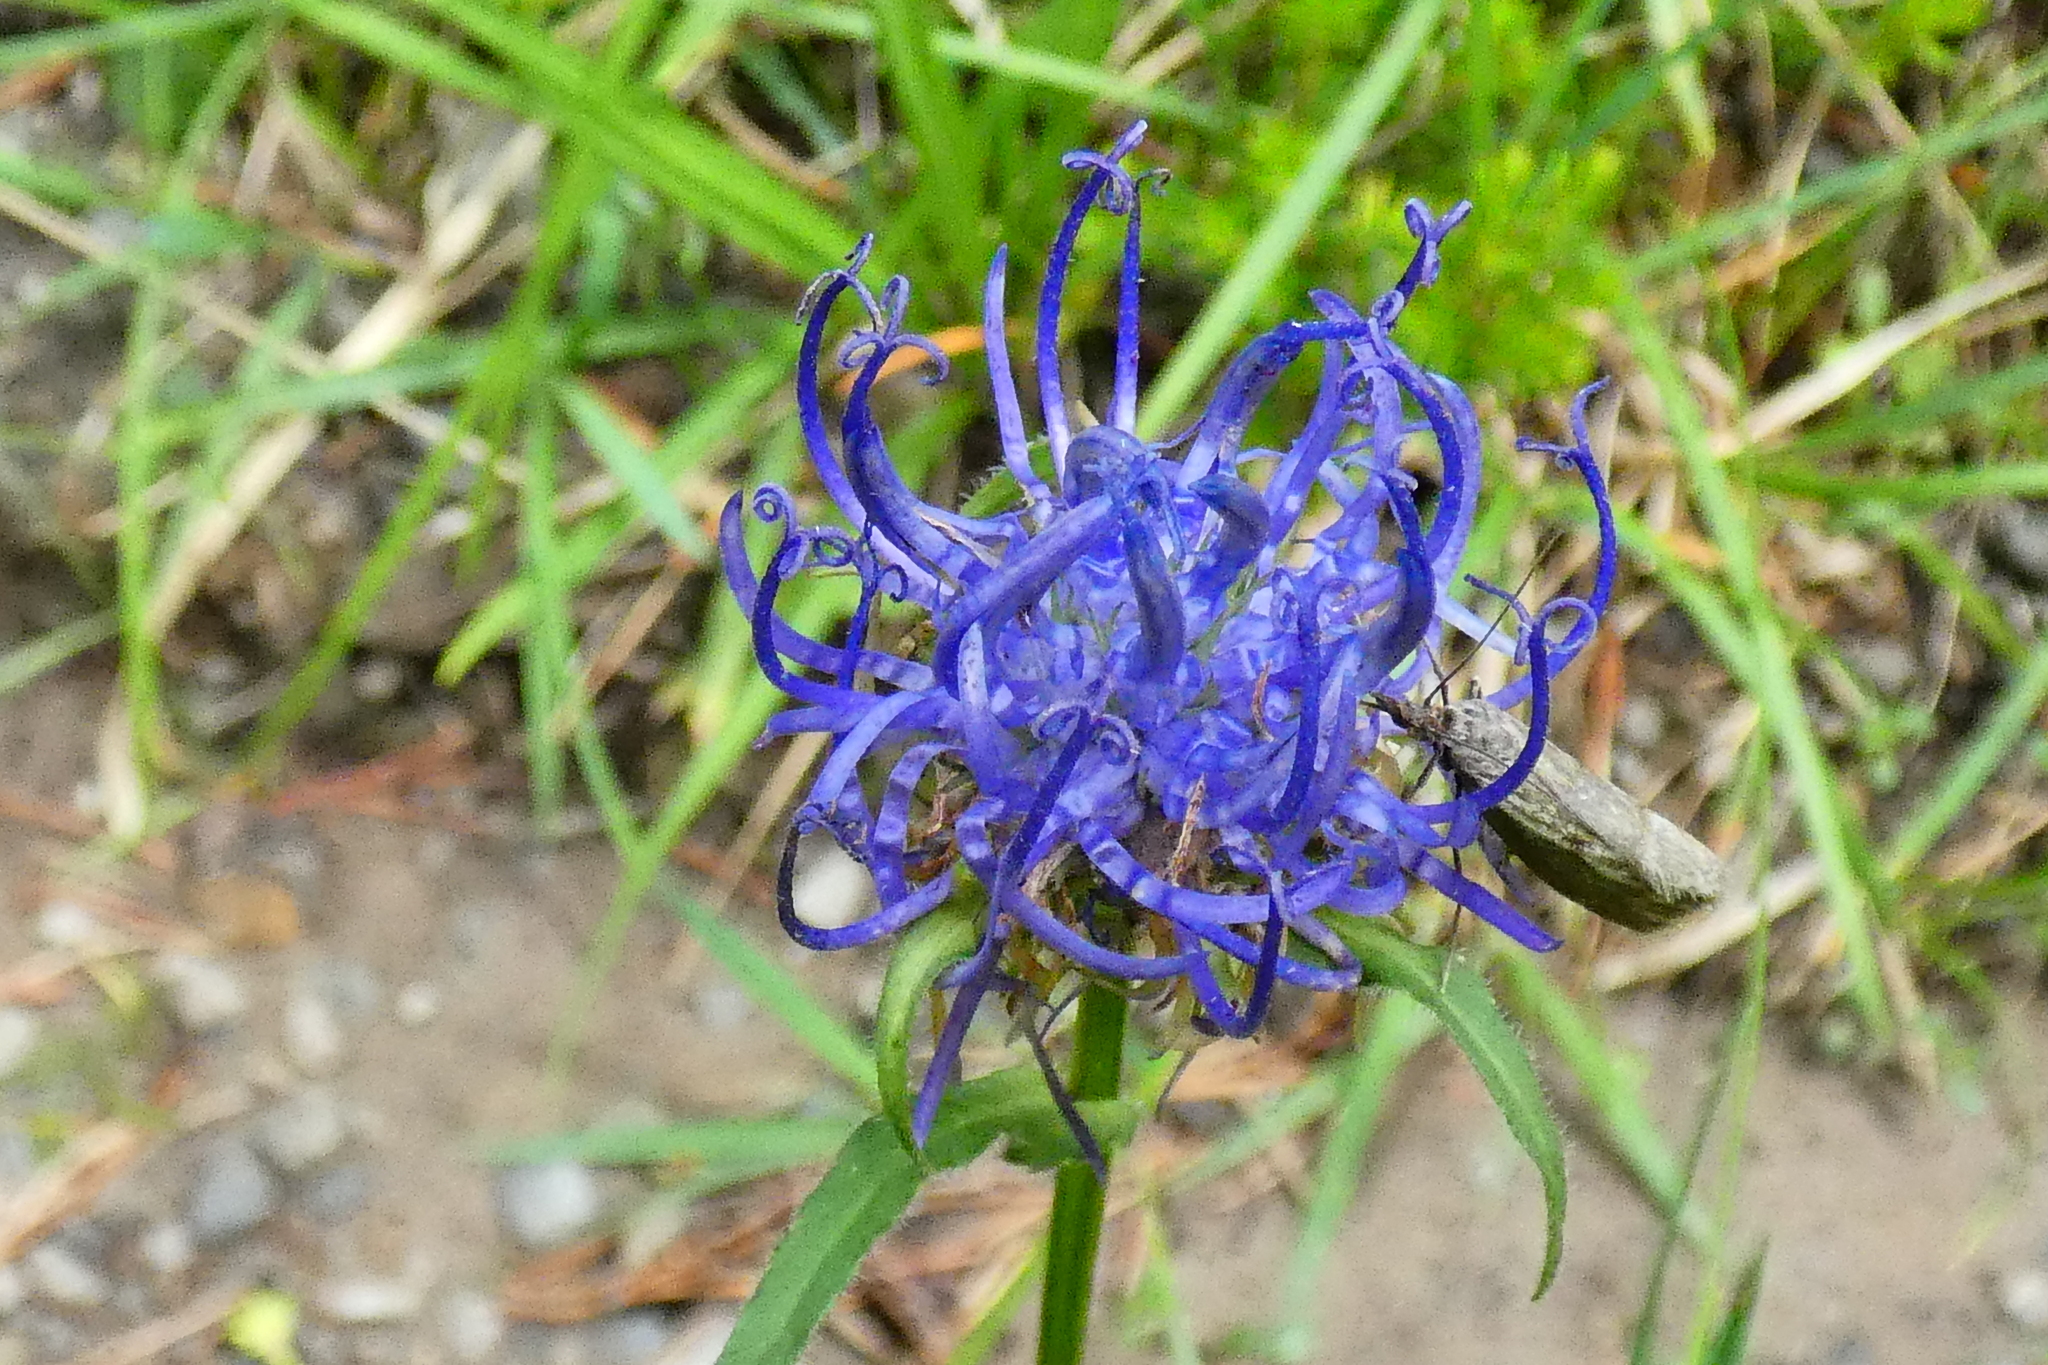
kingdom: Plantae
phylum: Tracheophyta
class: Magnoliopsida
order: Asterales
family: Campanulaceae
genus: Phyteuma
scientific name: Phyteuma orbiculare
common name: Round-headed rampion
